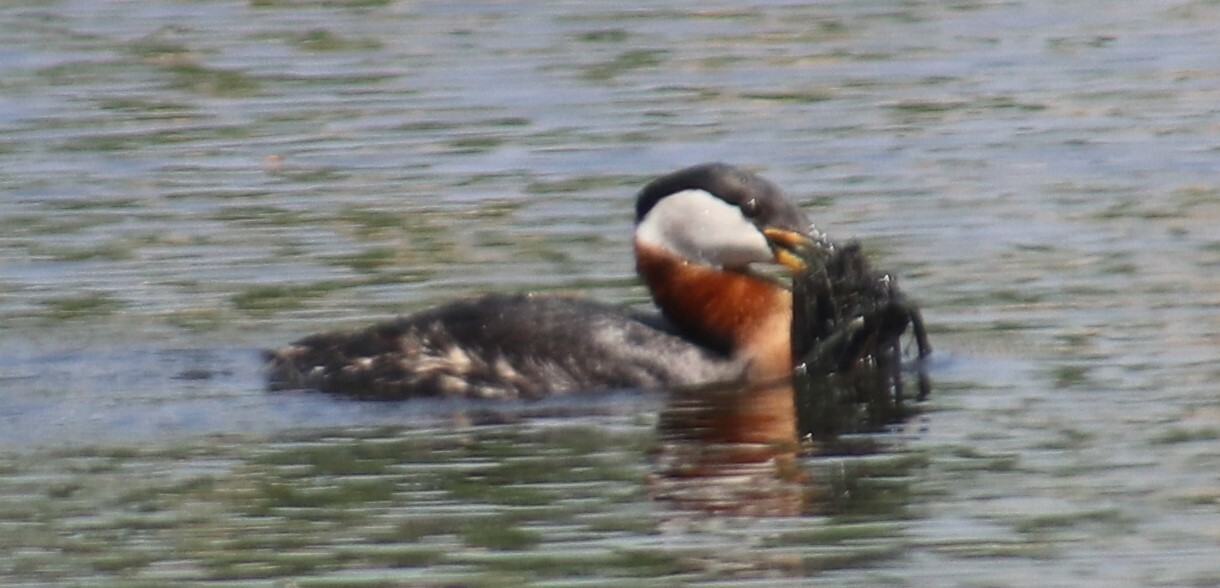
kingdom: Animalia
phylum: Chordata
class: Aves
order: Podicipediformes
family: Podicipedidae
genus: Podiceps
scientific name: Podiceps grisegena
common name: Red-necked grebe
